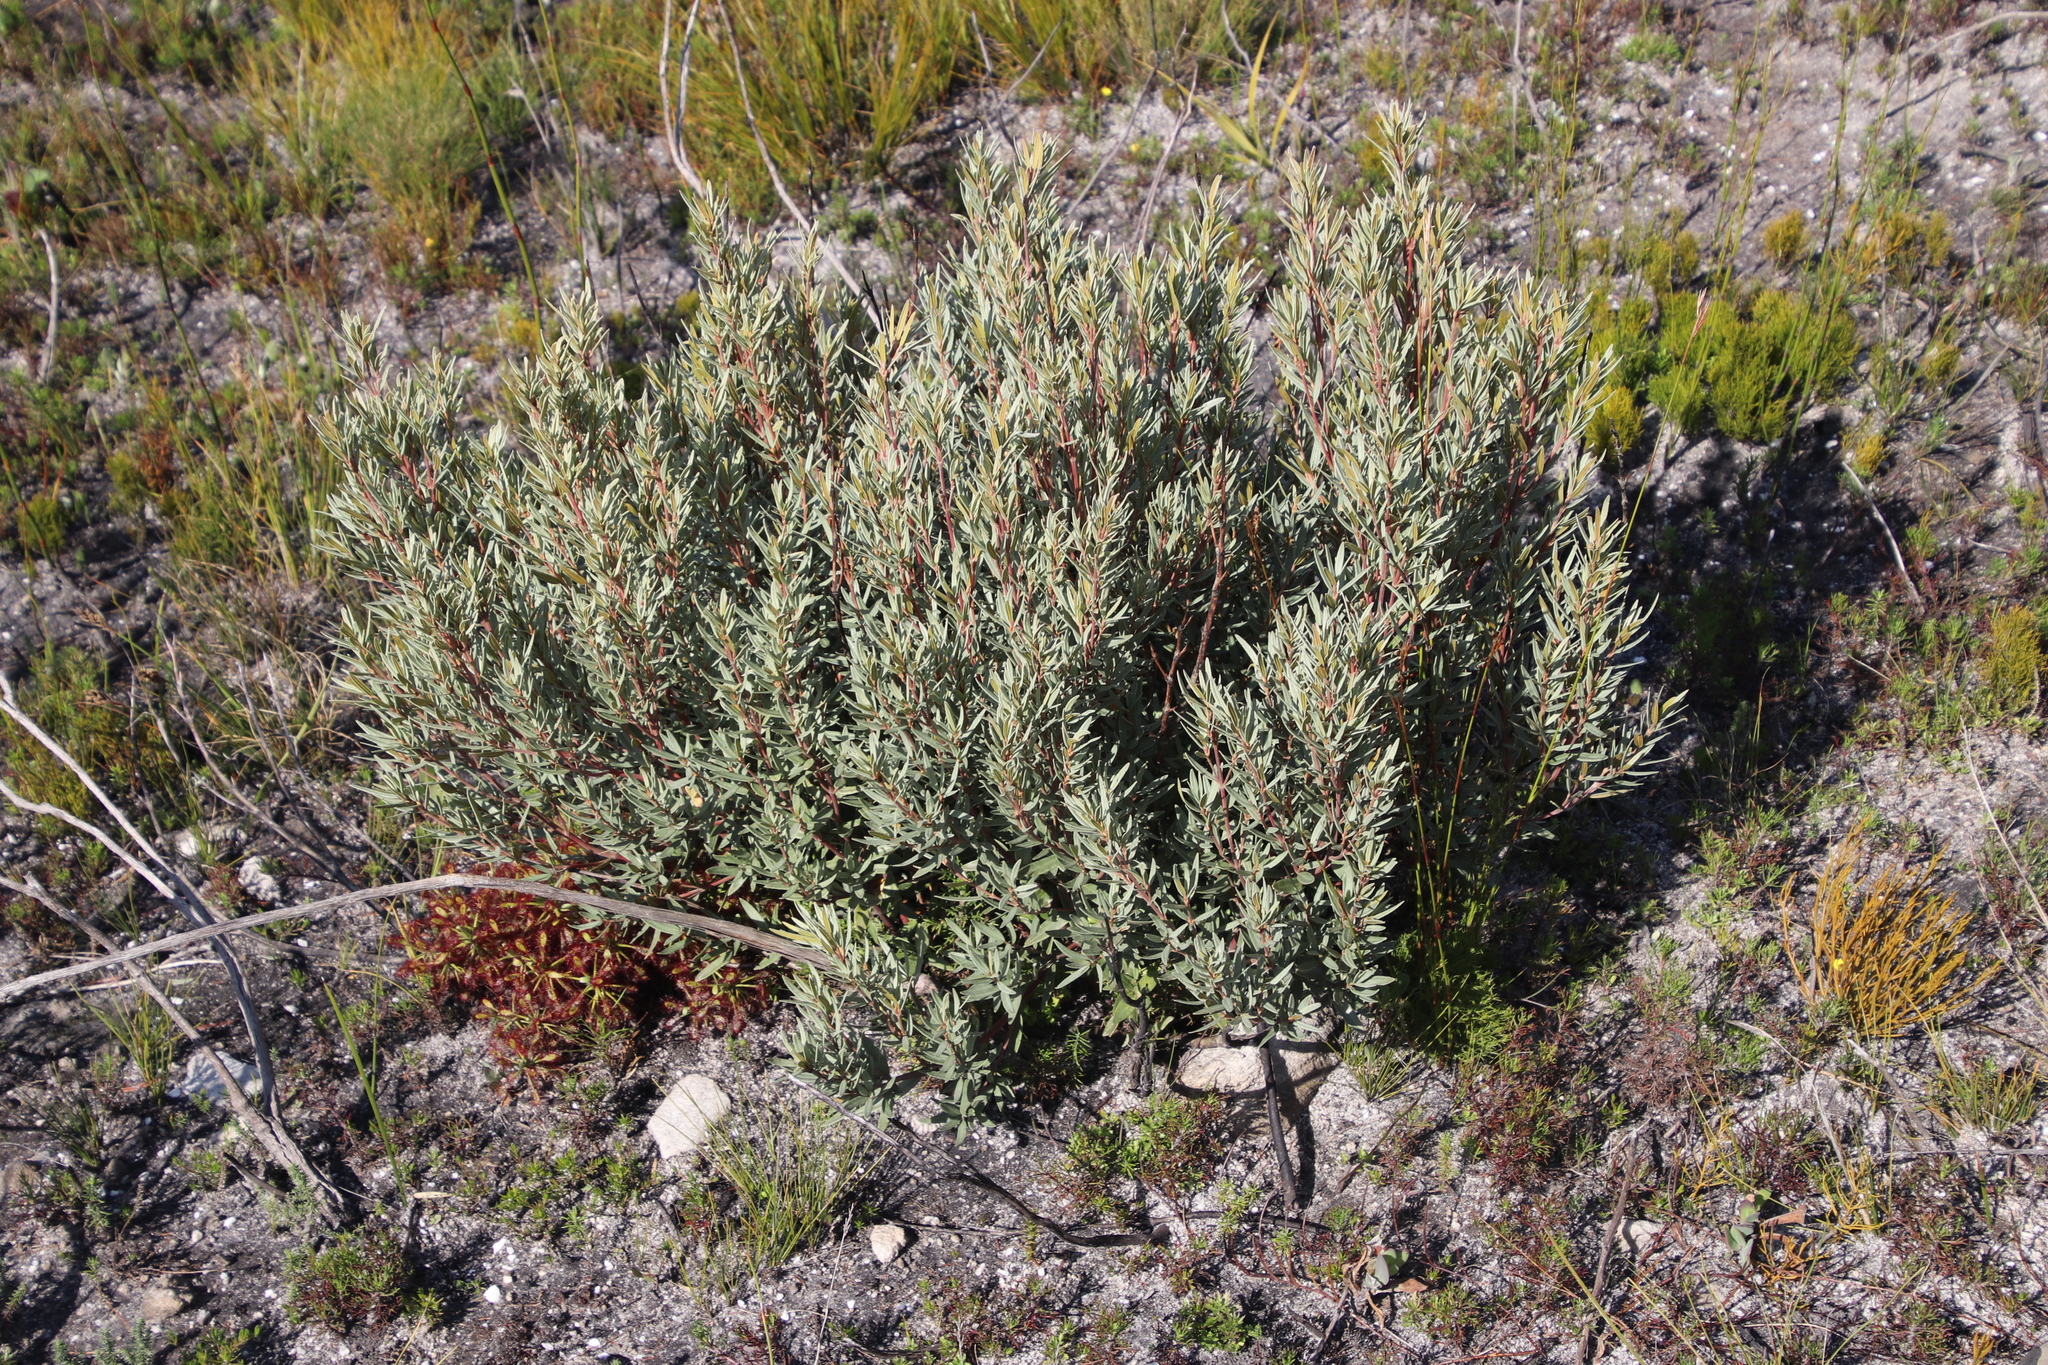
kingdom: Plantae
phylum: Tracheophyta
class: Magnoliopsida
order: Cornales
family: Grubbiaceae
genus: Grubbia
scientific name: Grubbia tomentosa
